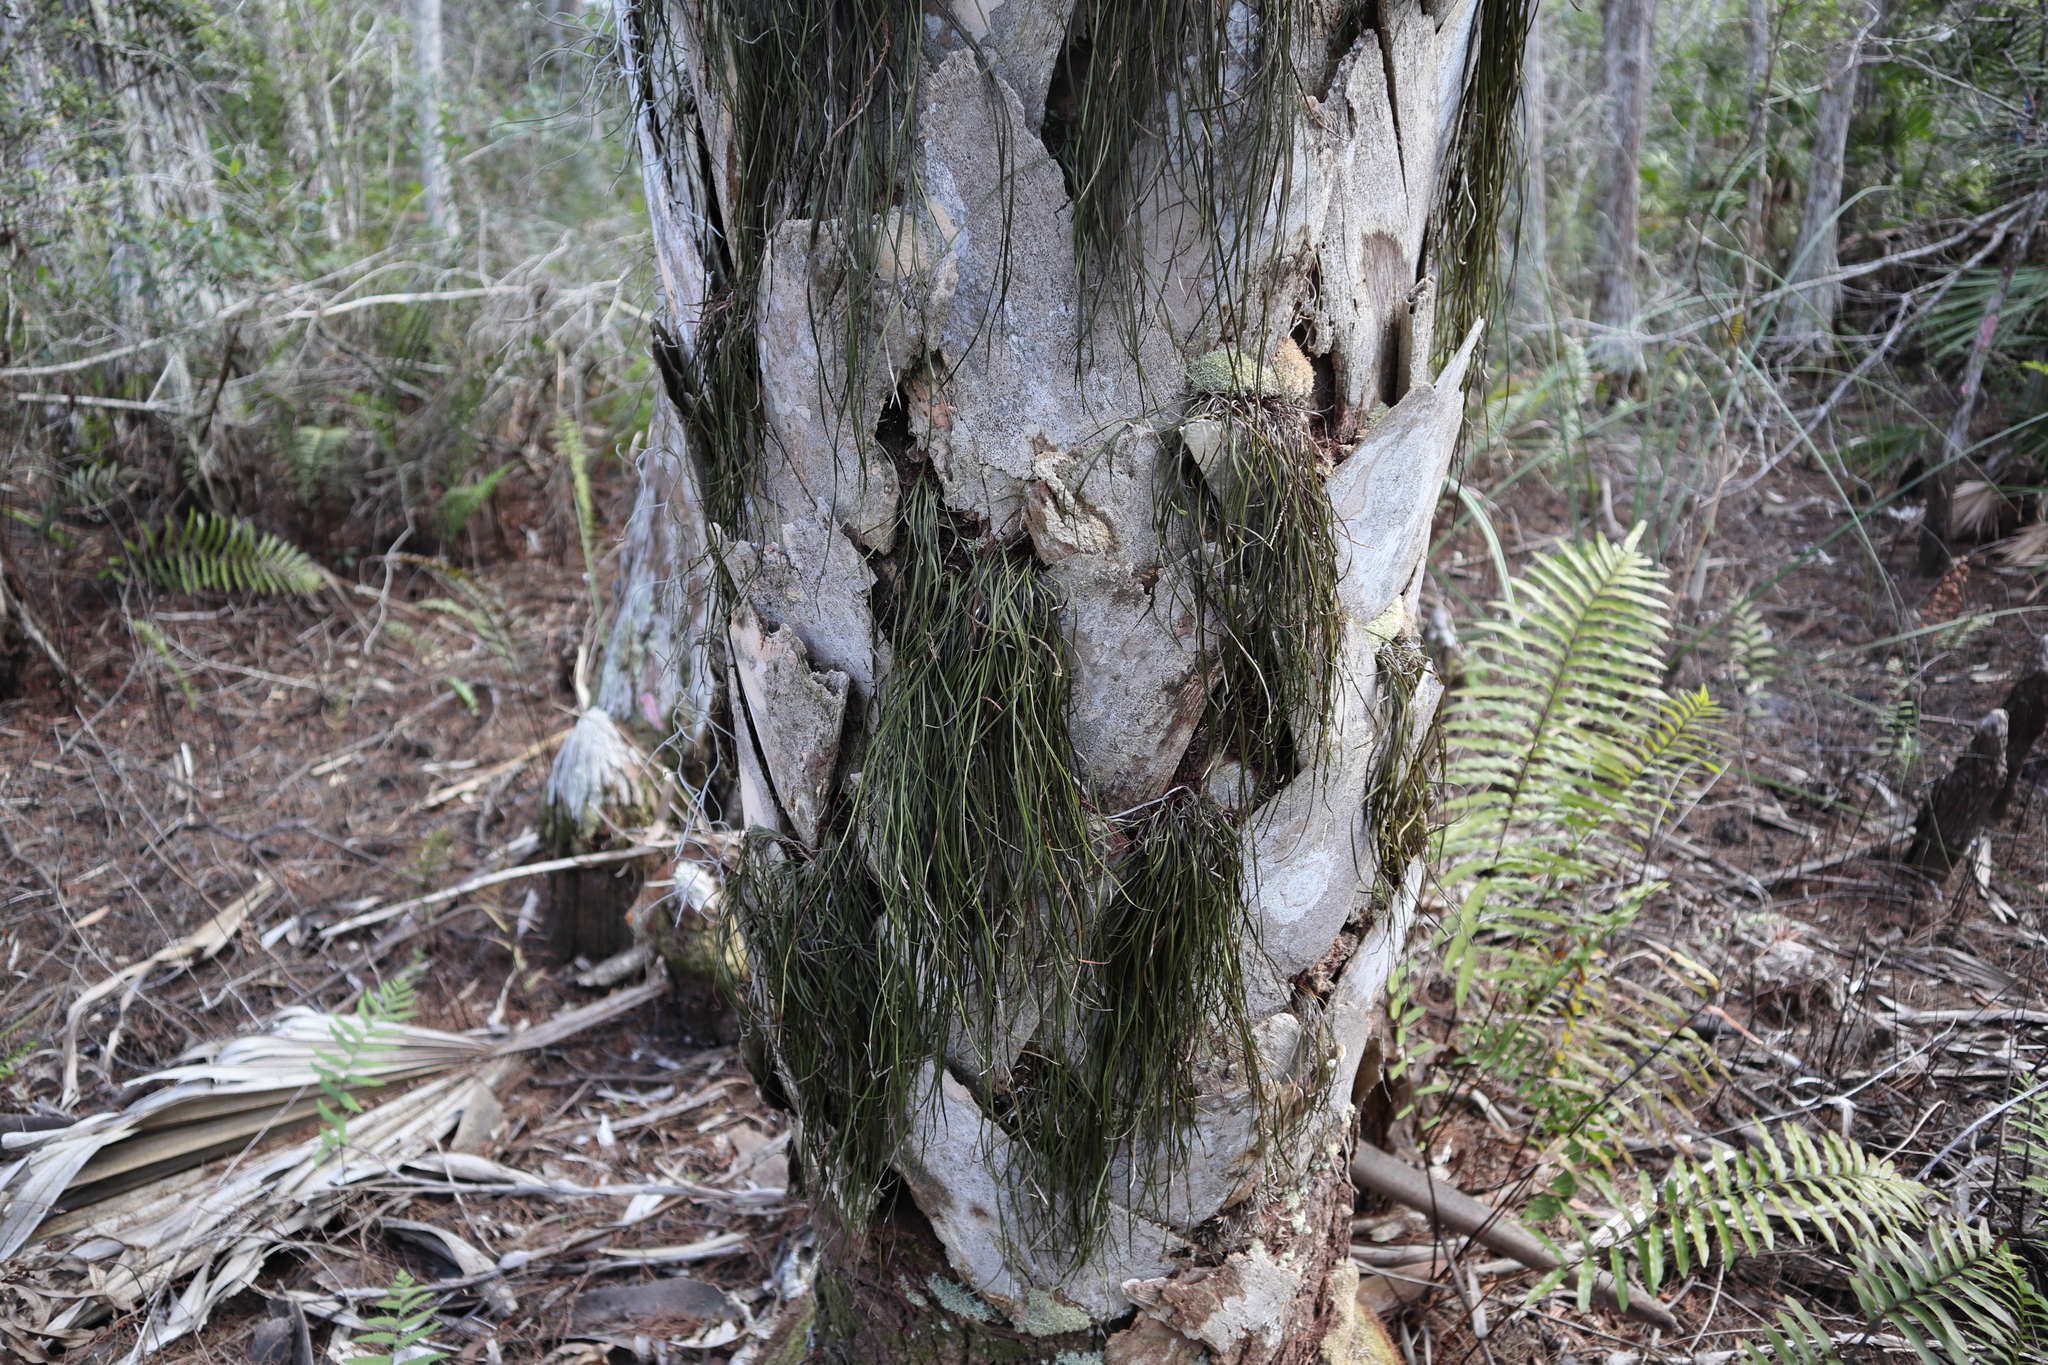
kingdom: Plantae
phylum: Tracheophyta
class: Polypodiopsida
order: Polypodiales
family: Pteridaceae
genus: Vittaria
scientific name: Vittaria lineata
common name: Shoestring fern
